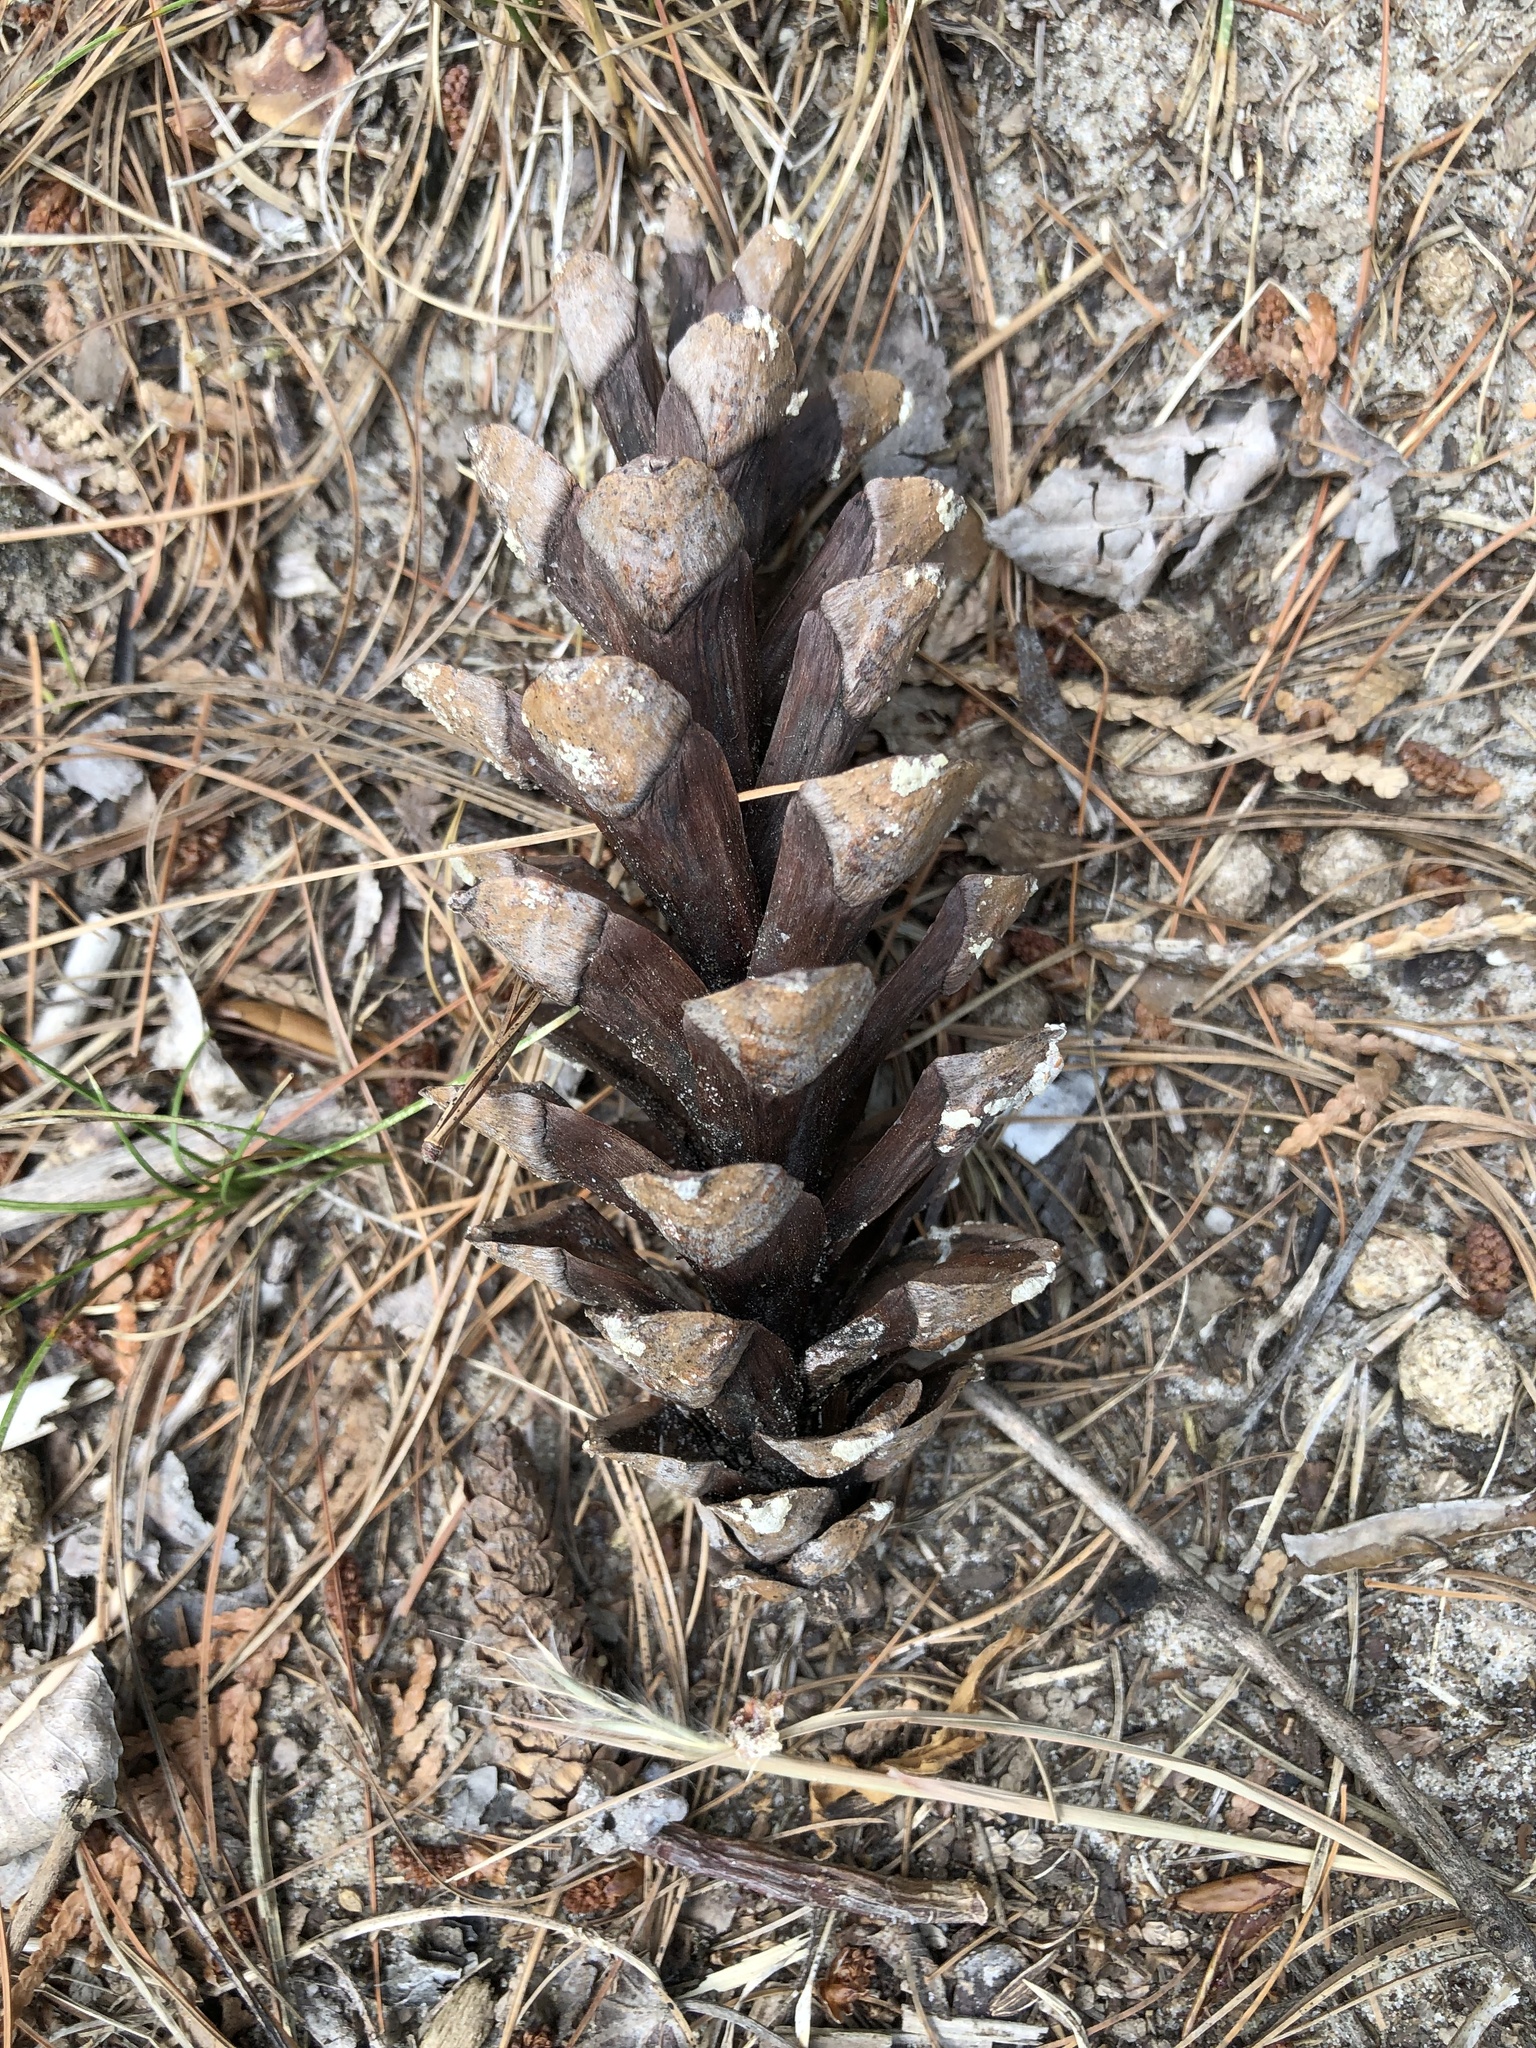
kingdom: Plantae
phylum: Tracheophyta
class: Pinopsida
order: Pinales
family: Pinaceae
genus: Pinus
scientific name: Pinus strobus
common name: Weymouth pine
